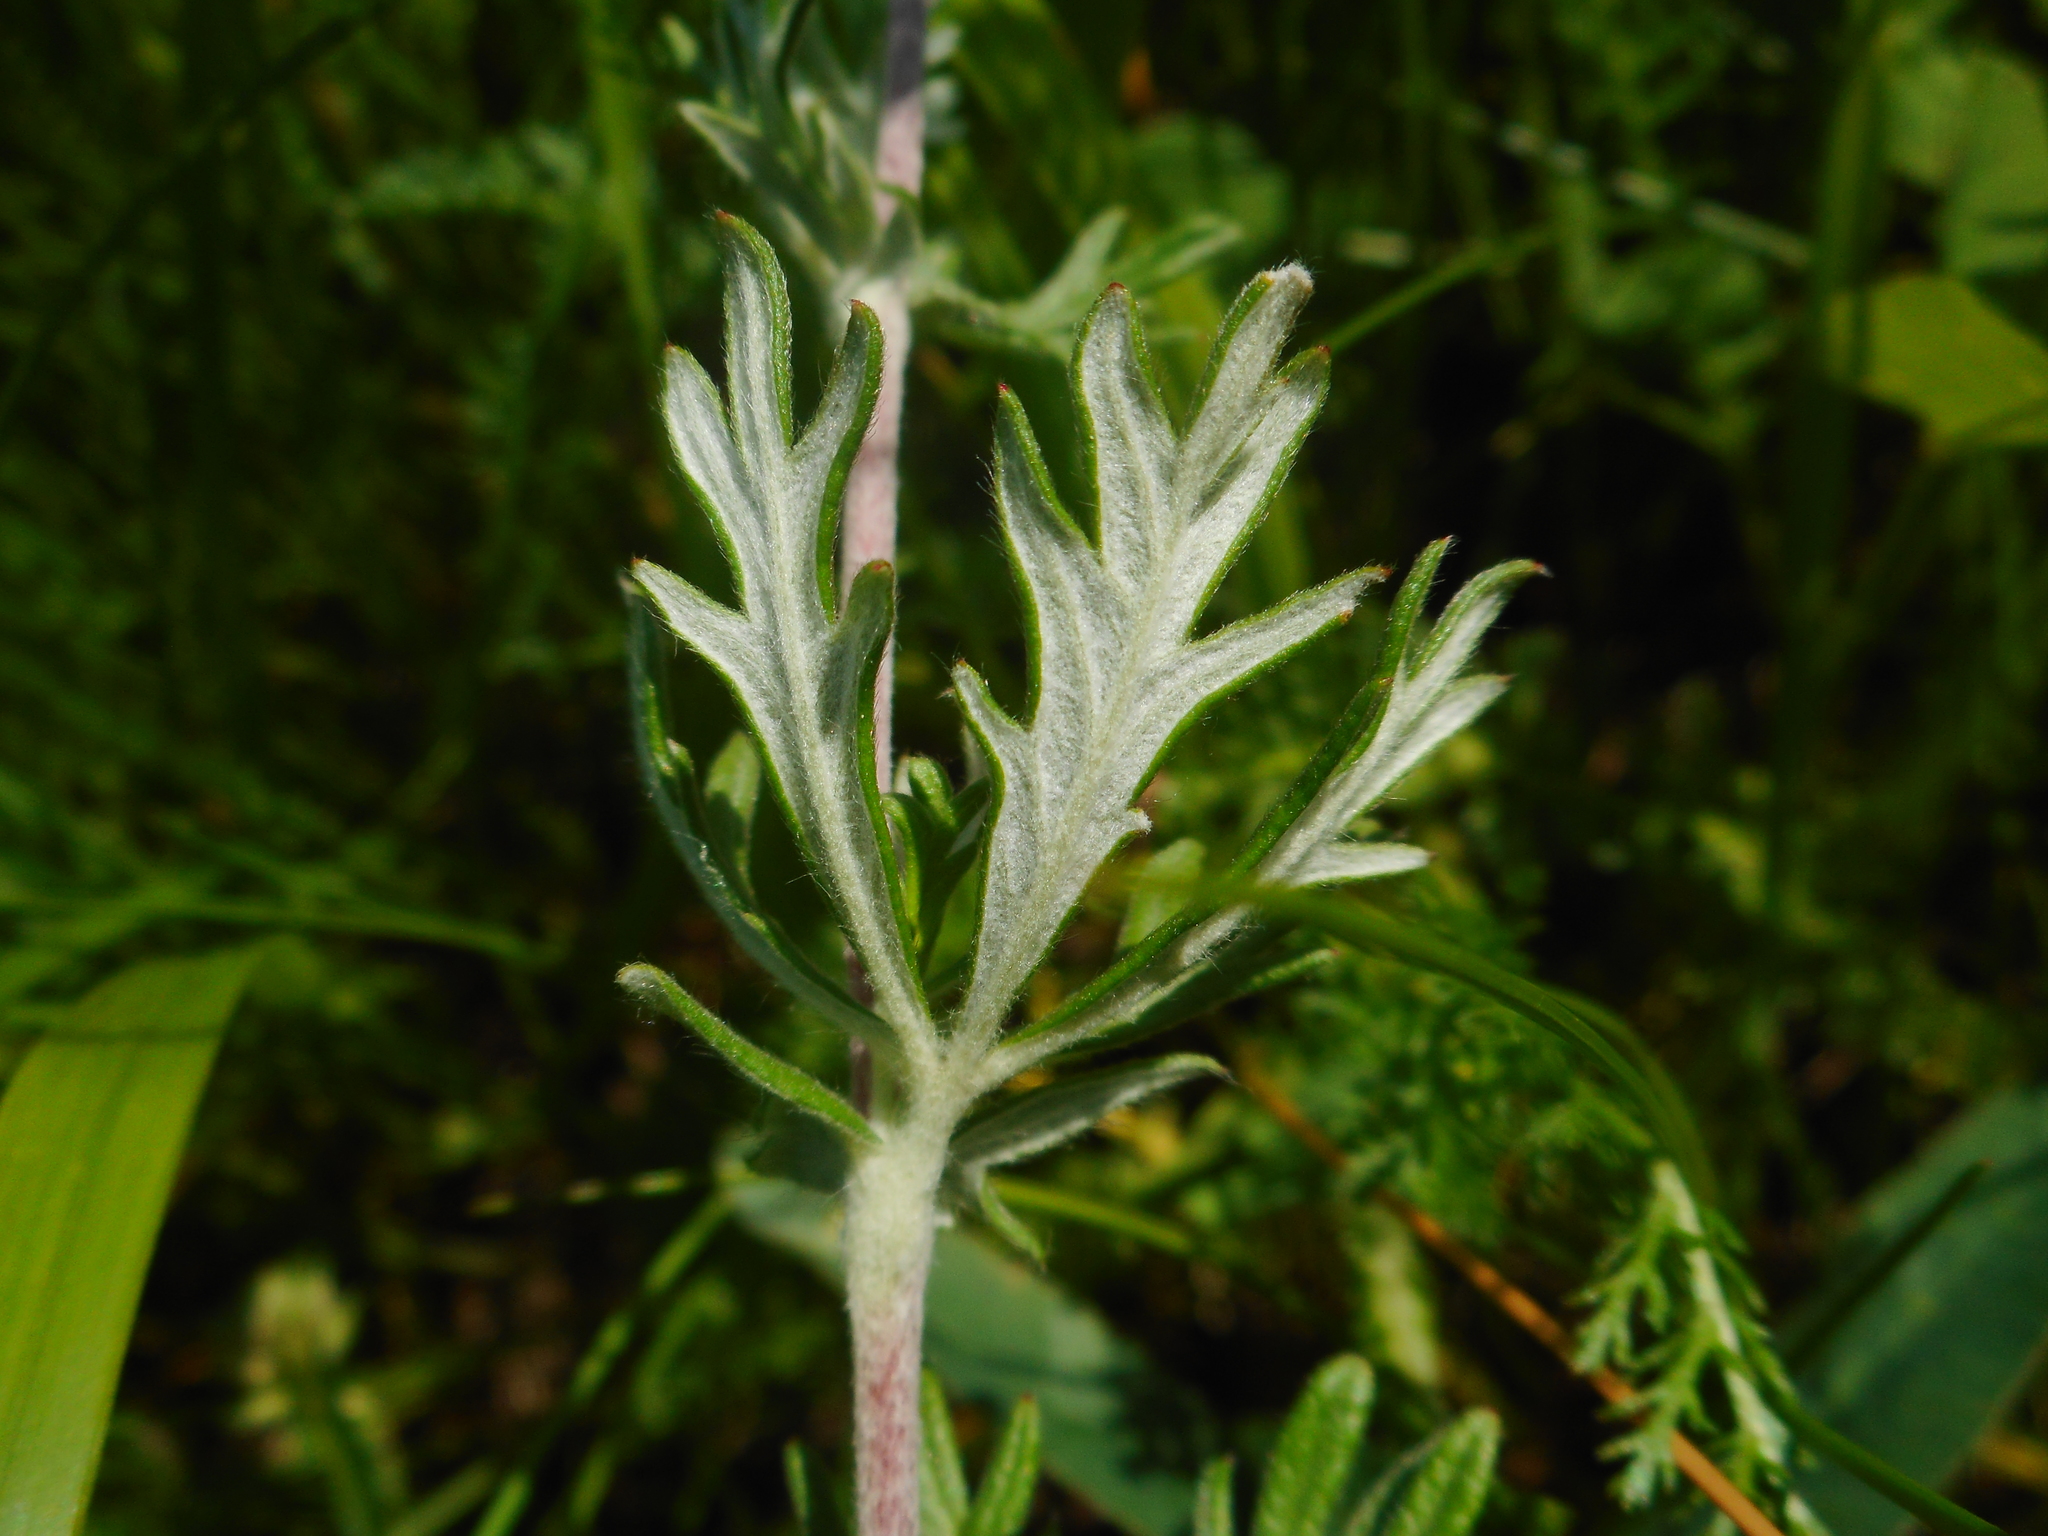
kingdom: Plantae
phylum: Tracheophyta
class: Magnoliopsida
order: Rosales
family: Rosaceae
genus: Potentilla
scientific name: Potentilla argentea
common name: Hoary cinquefoil
